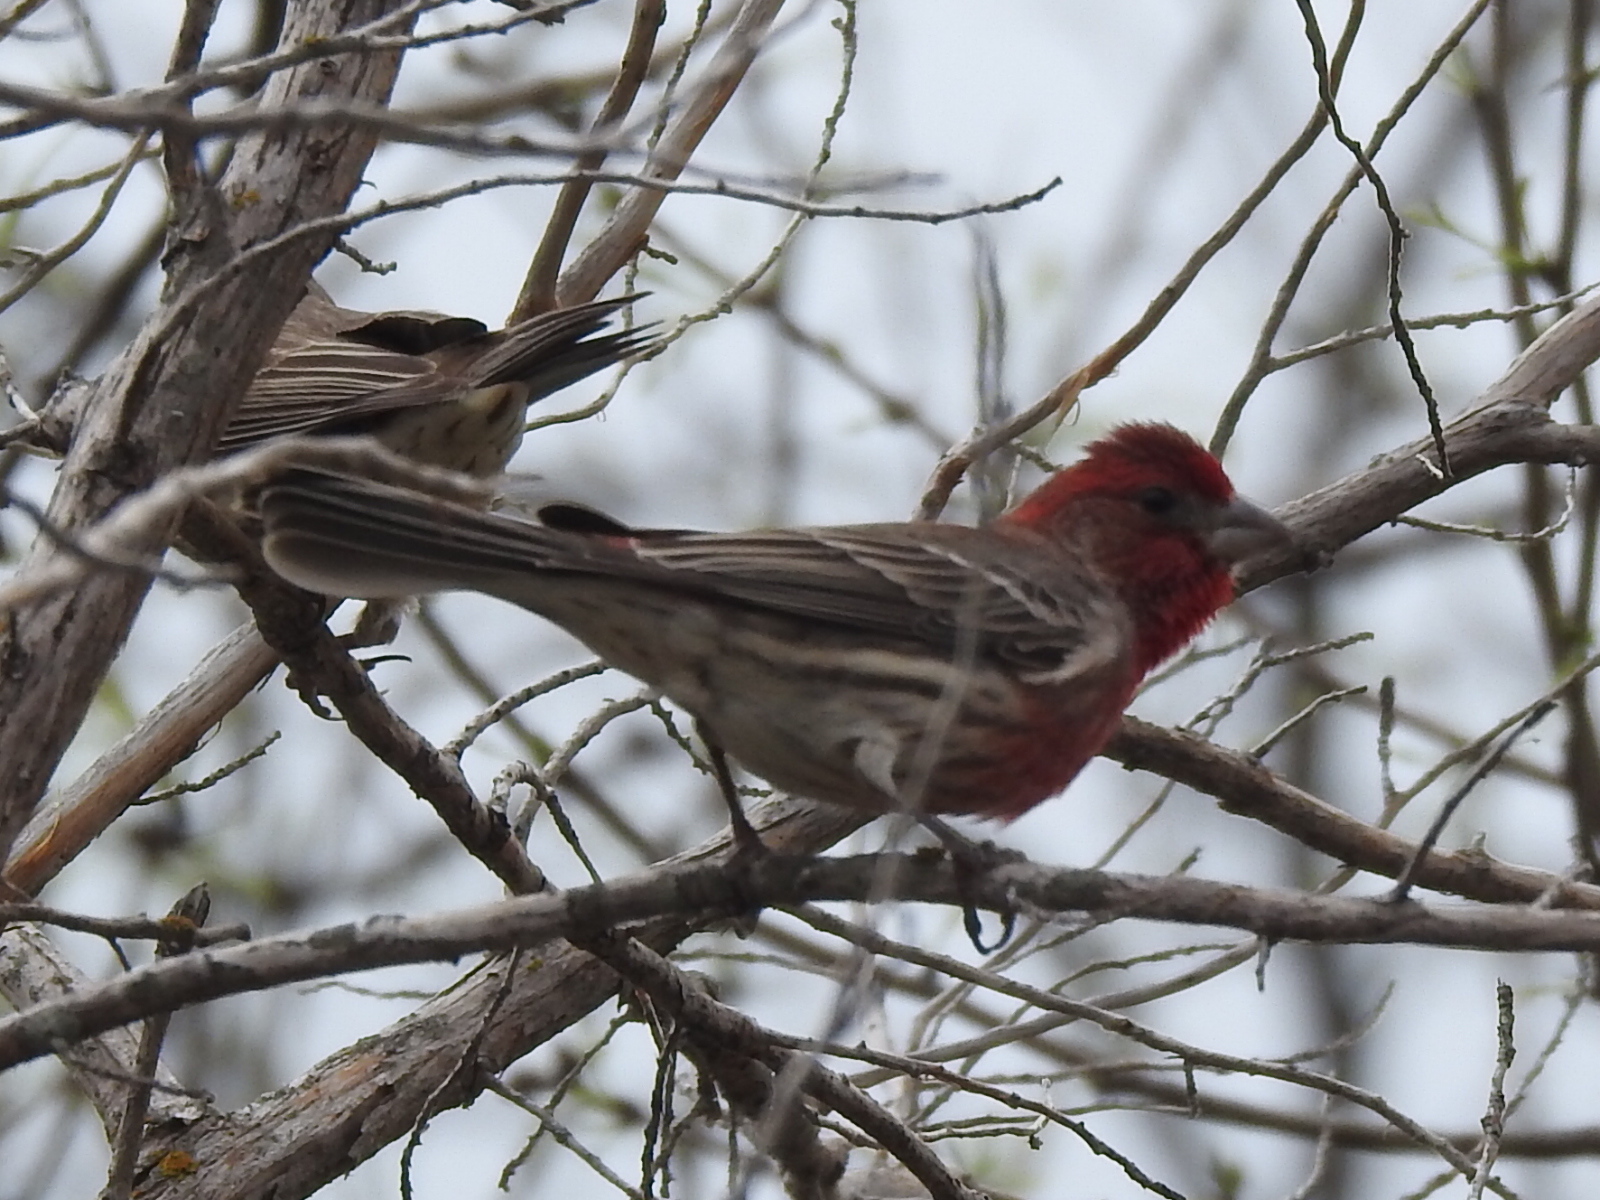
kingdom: Animalia
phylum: Chordata
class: Aves
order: Passeriformes
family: Fringillidae
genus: Haemorhous
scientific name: Haemorhous mexicanus
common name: House finch
